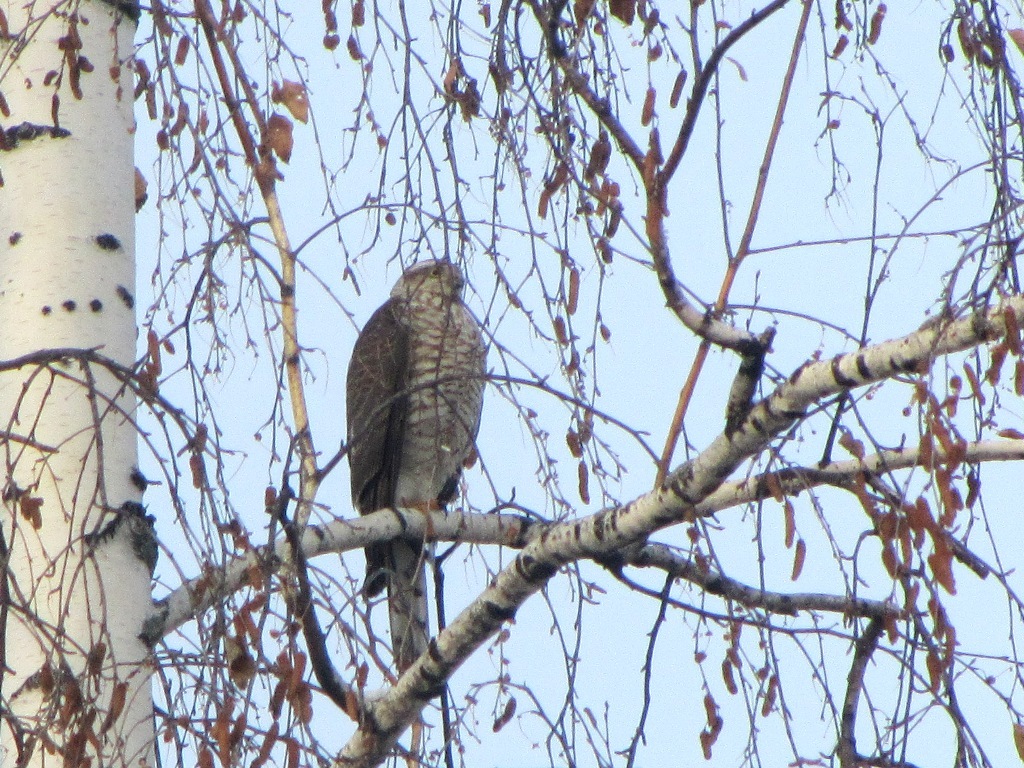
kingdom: Animalia
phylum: Chordata
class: Aves
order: Accipitriformes
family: Accipitridae
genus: Accipiter
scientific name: Accipiter nisus
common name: Eurasian sparrowhawk
